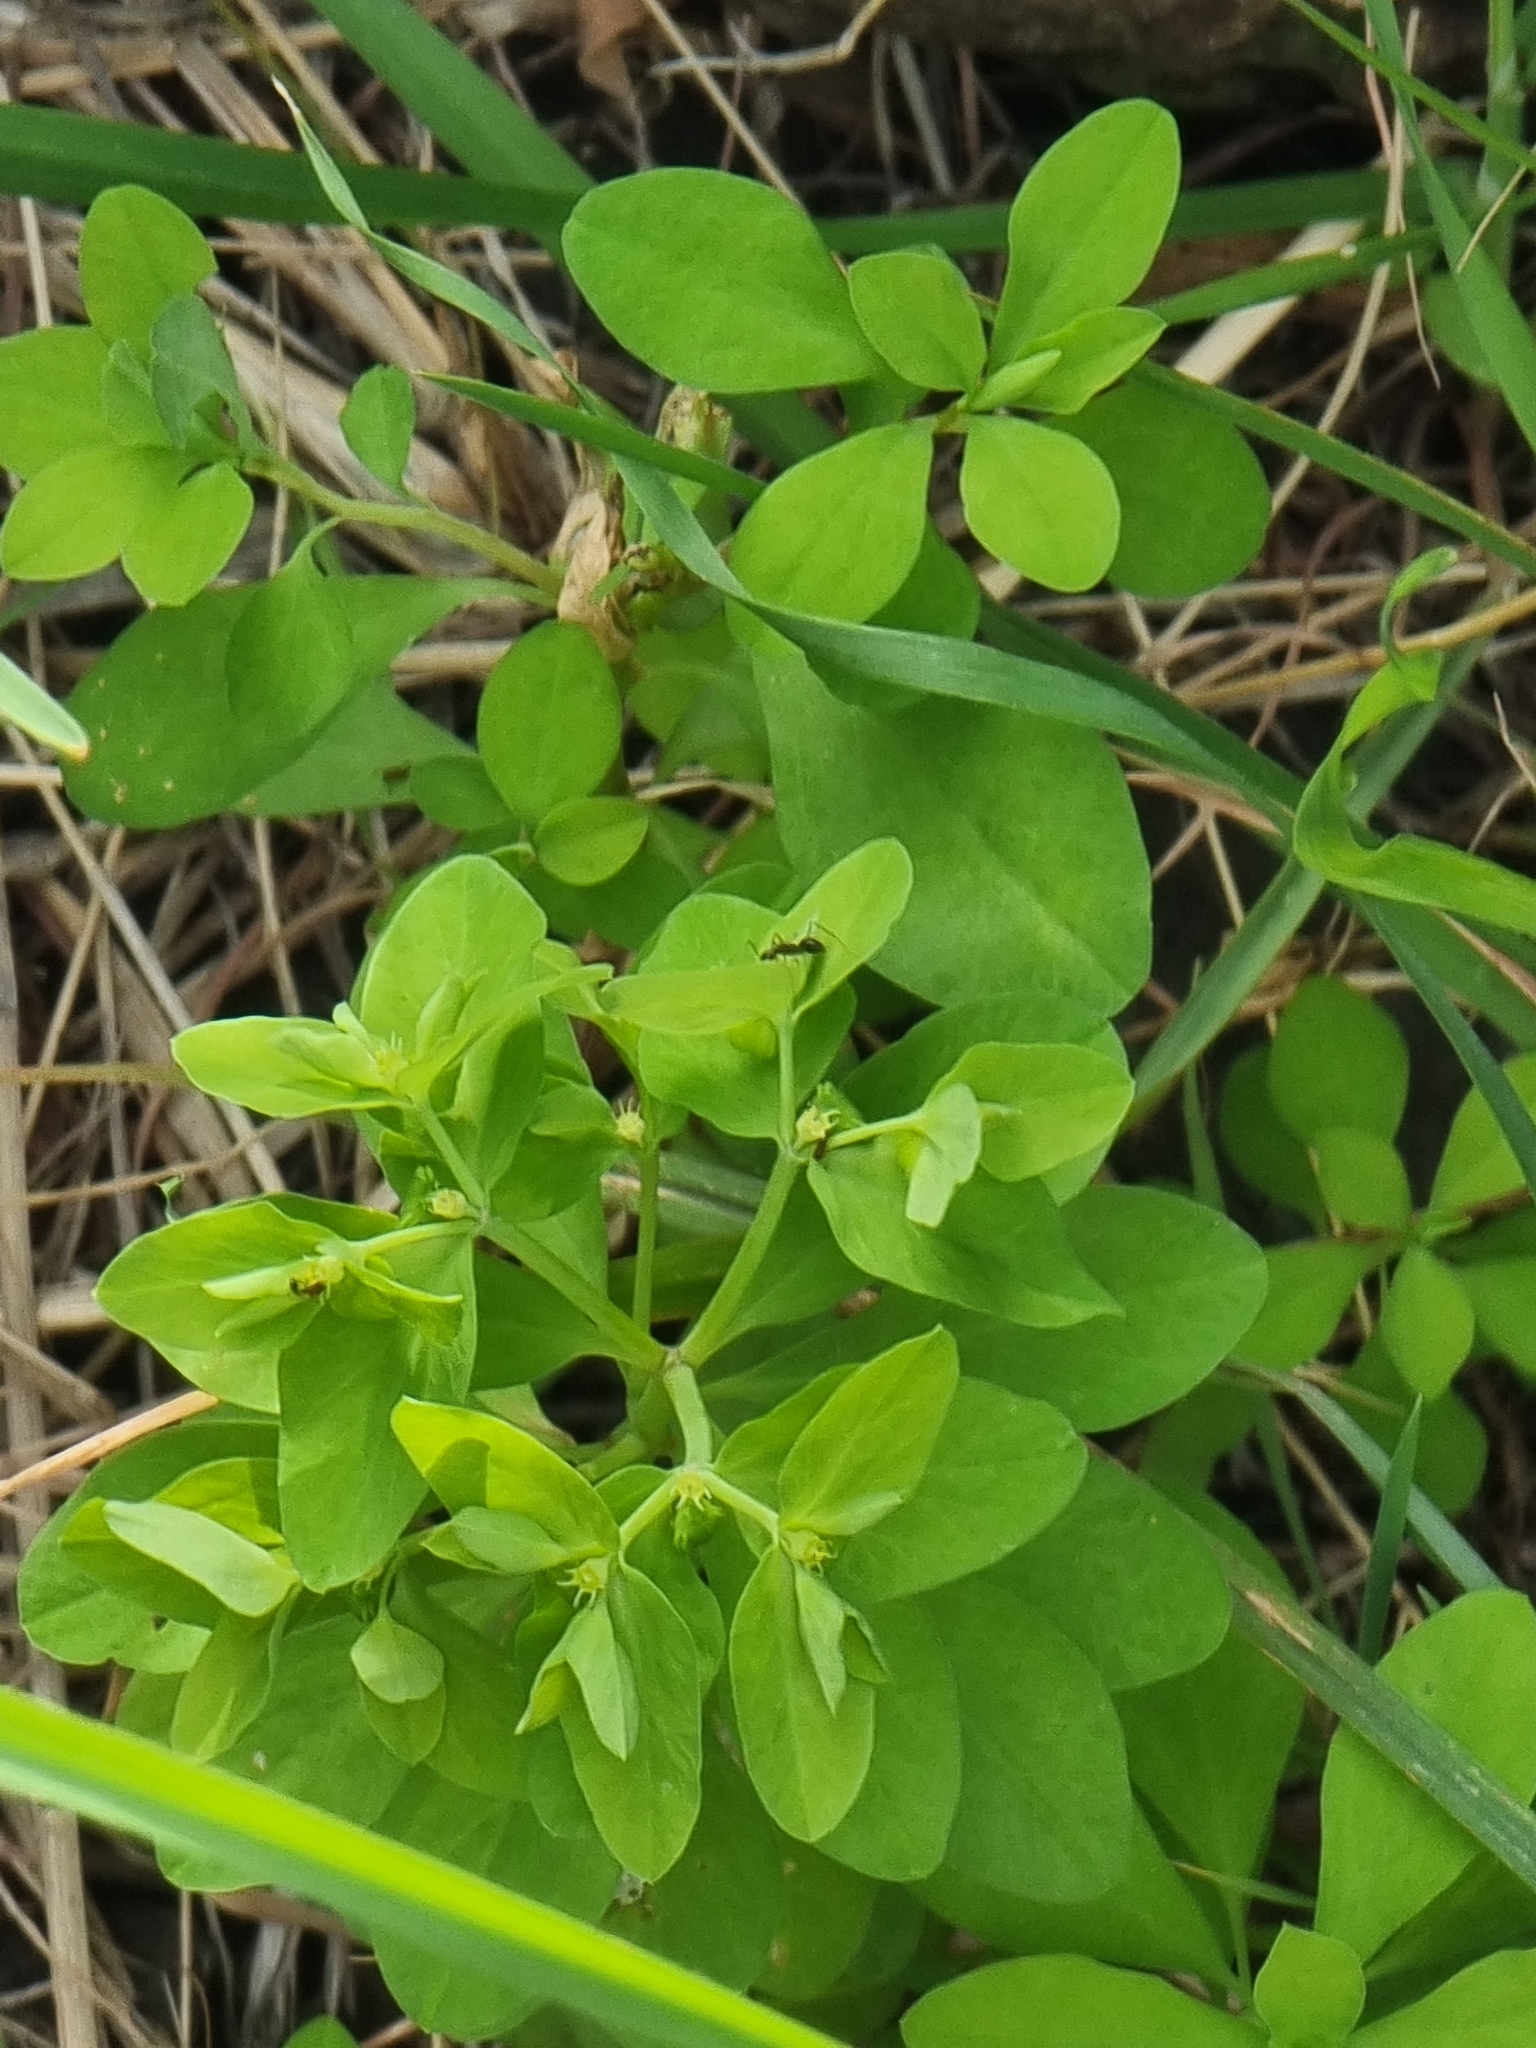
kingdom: Plantae
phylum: Tracheophyta
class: Magnoliopsida
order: Malpighiales
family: Euphorbiaceae
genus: Euphorbia
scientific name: Euphorbia peplus
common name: Petty spurge
